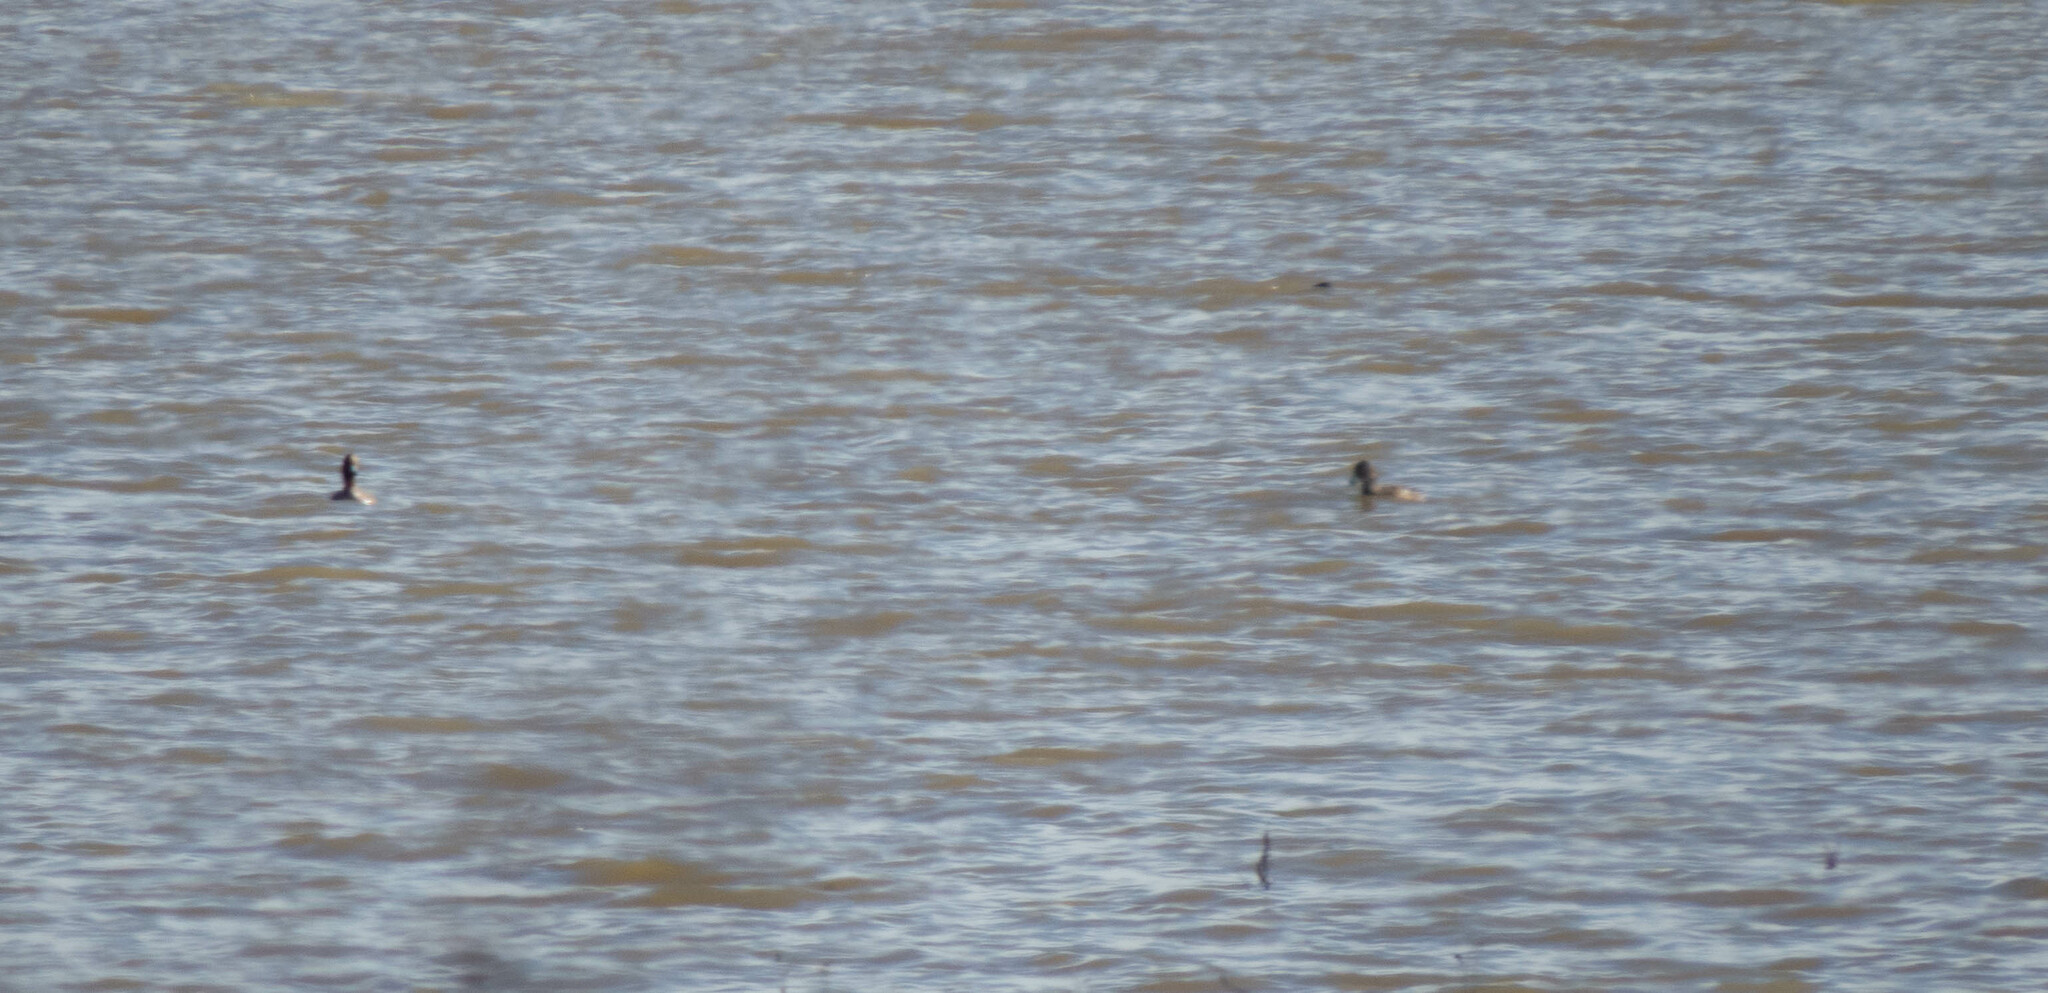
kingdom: Animalia
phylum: Chordata
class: Aves
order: Anseriformes
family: Anatidae
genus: Mareca
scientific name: Mareca penelope
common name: Eurasian wigeon
